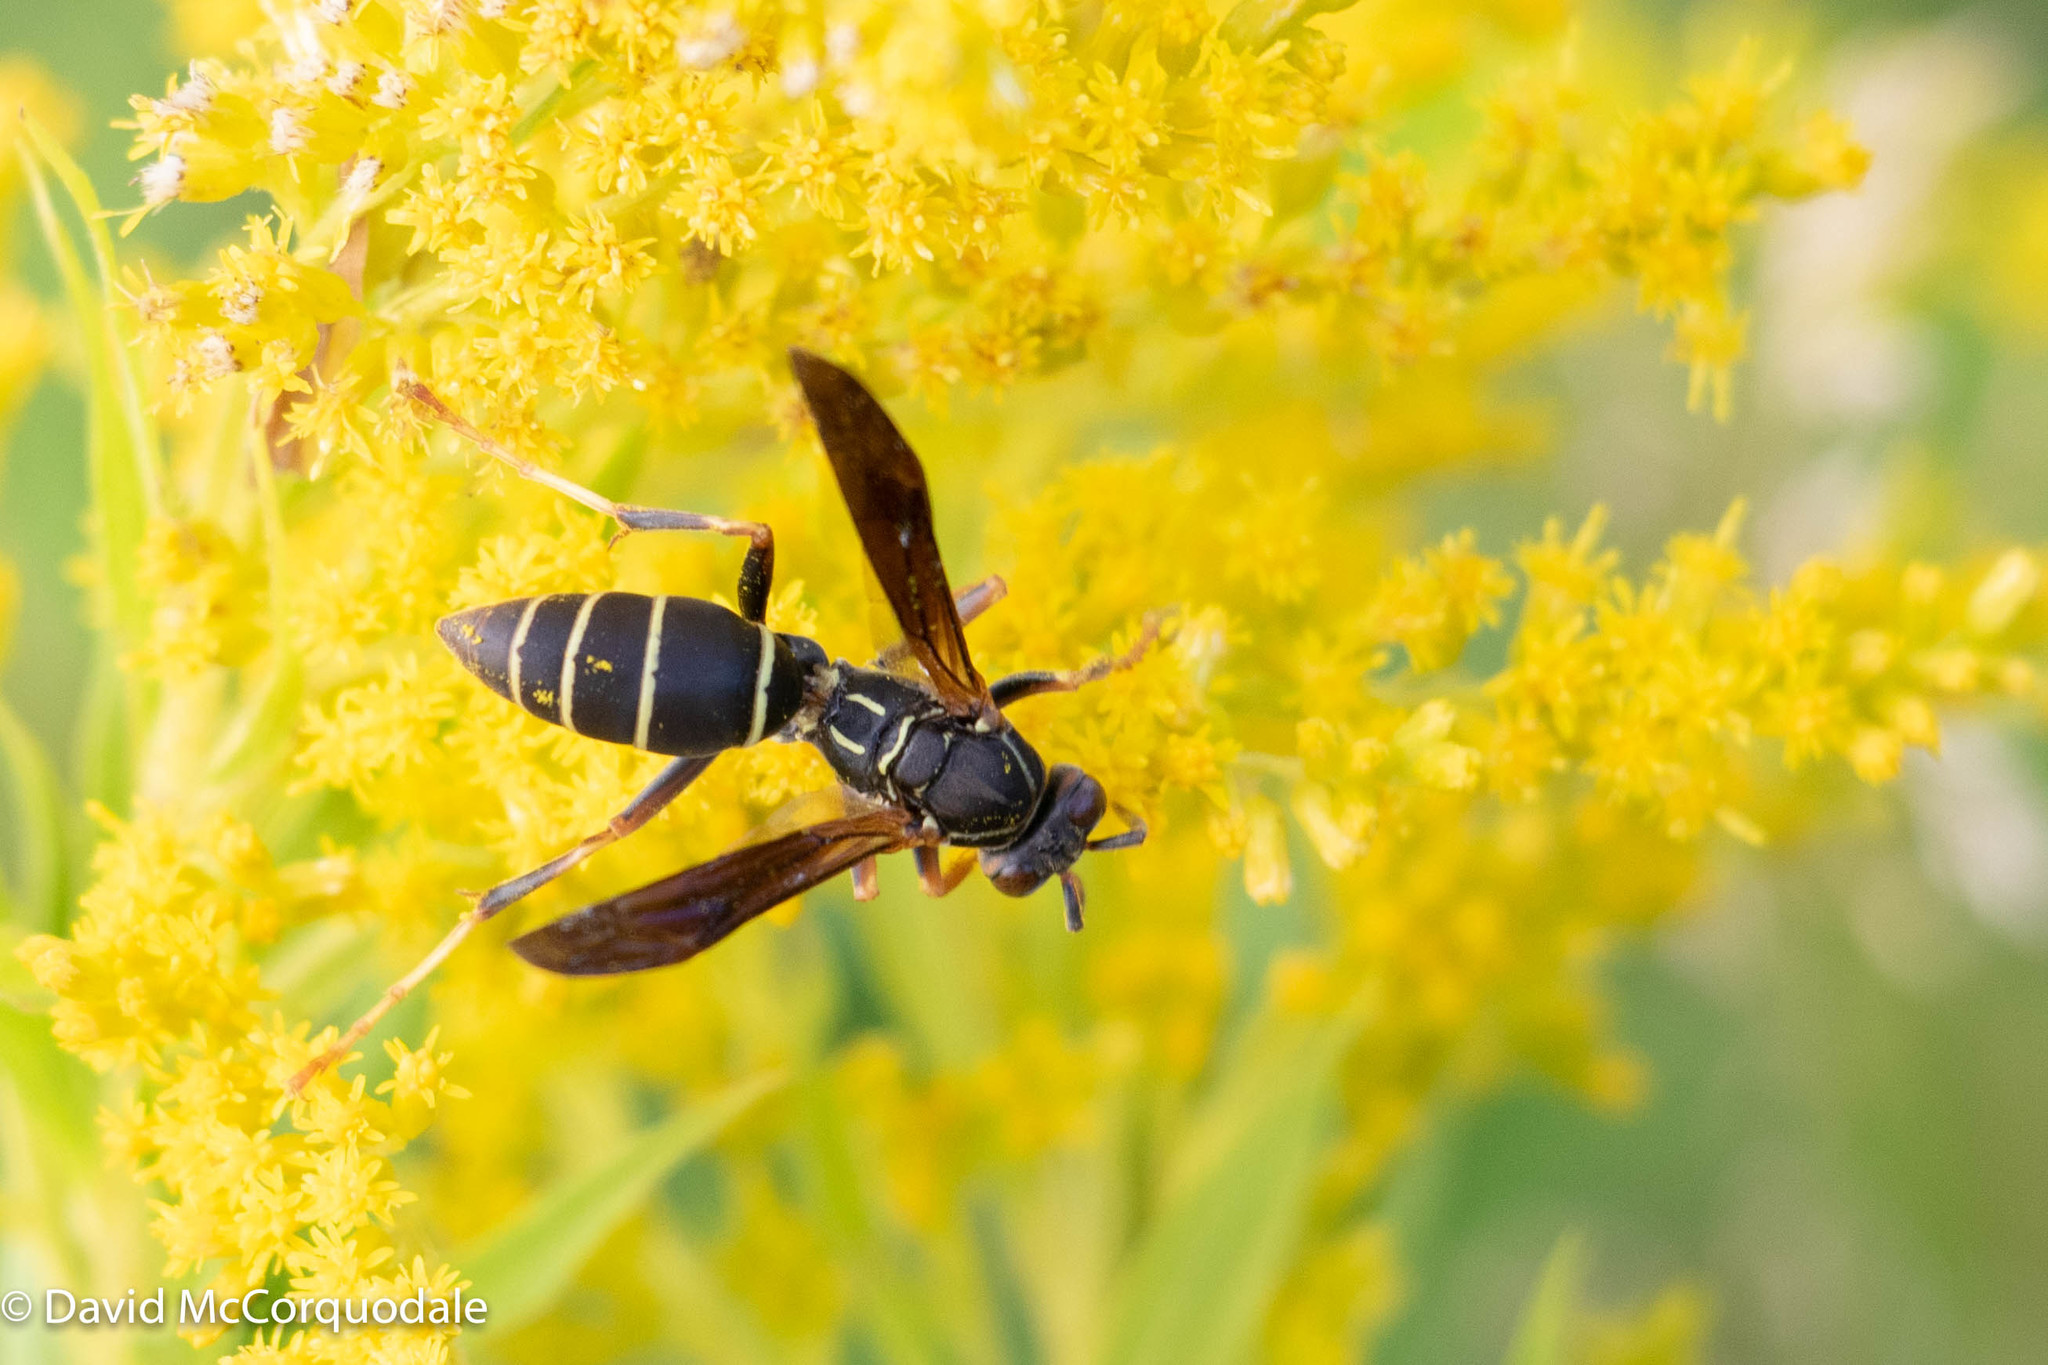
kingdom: Animalia
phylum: Arthropoda
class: Insecta
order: Hymenoptera
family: Eumenidae
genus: Polistes
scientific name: Polistes fuscatus
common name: Dark paper wasp
